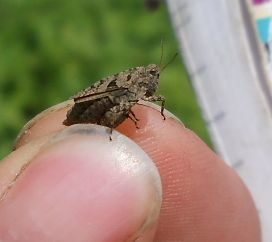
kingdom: Animalia
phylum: Arthropoda
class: Insecta
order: Orthoptera
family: Tetrigidae
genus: Tetrix
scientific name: Tetrix tenuicornis
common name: Long-horned groundhopper
